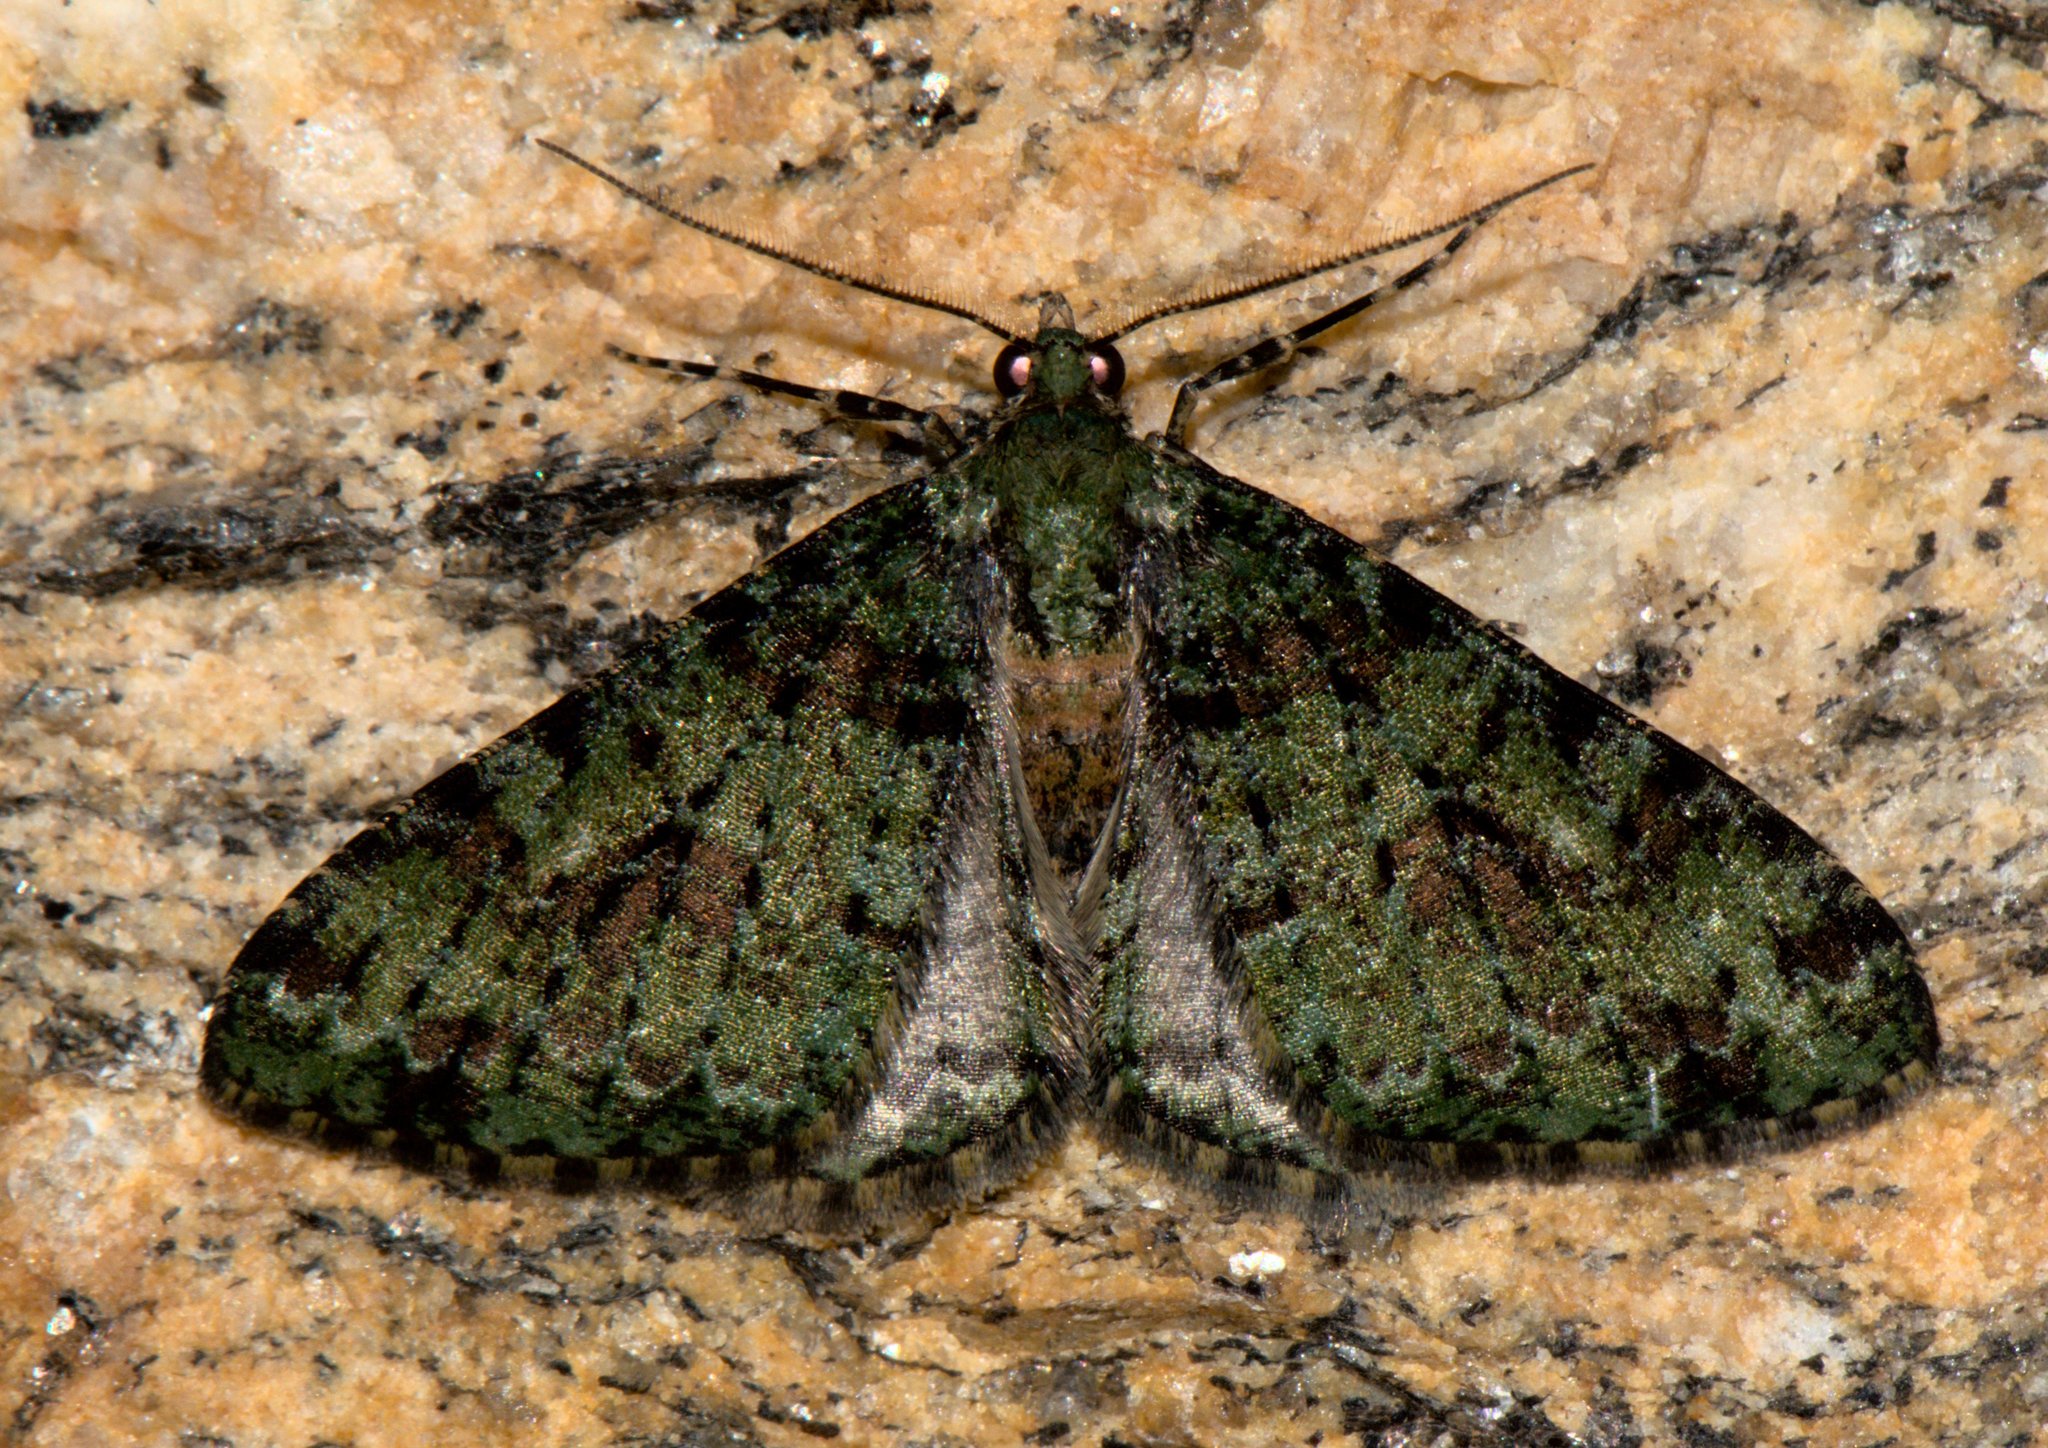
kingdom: Animalia
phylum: Arthropoda
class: Insecta
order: Lepidoptera
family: Geometridae
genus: Myrioblephara
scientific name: Myrioblephara duplexa
